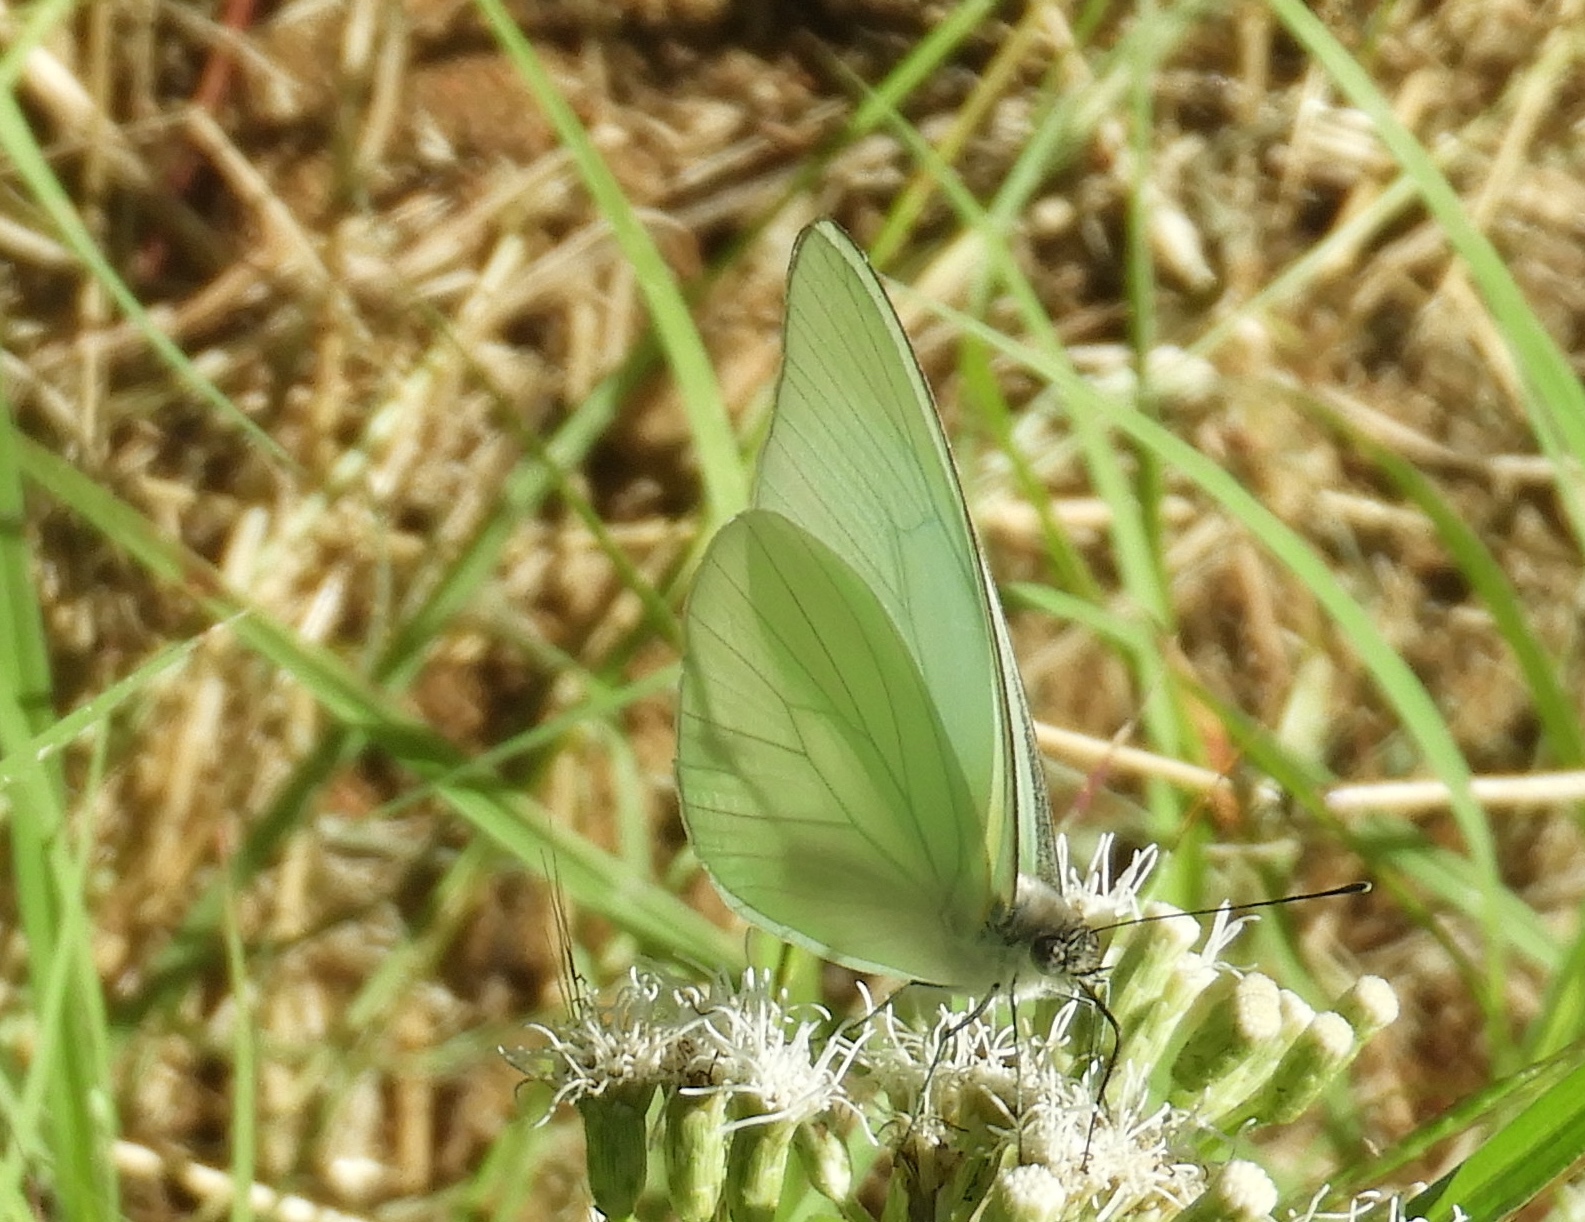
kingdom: Animalia
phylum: Arthropoda
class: Insecta
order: Lepidoptera
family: Pieridae
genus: Glutophrissa
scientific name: Glutophrissa drusilla
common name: Florida white
